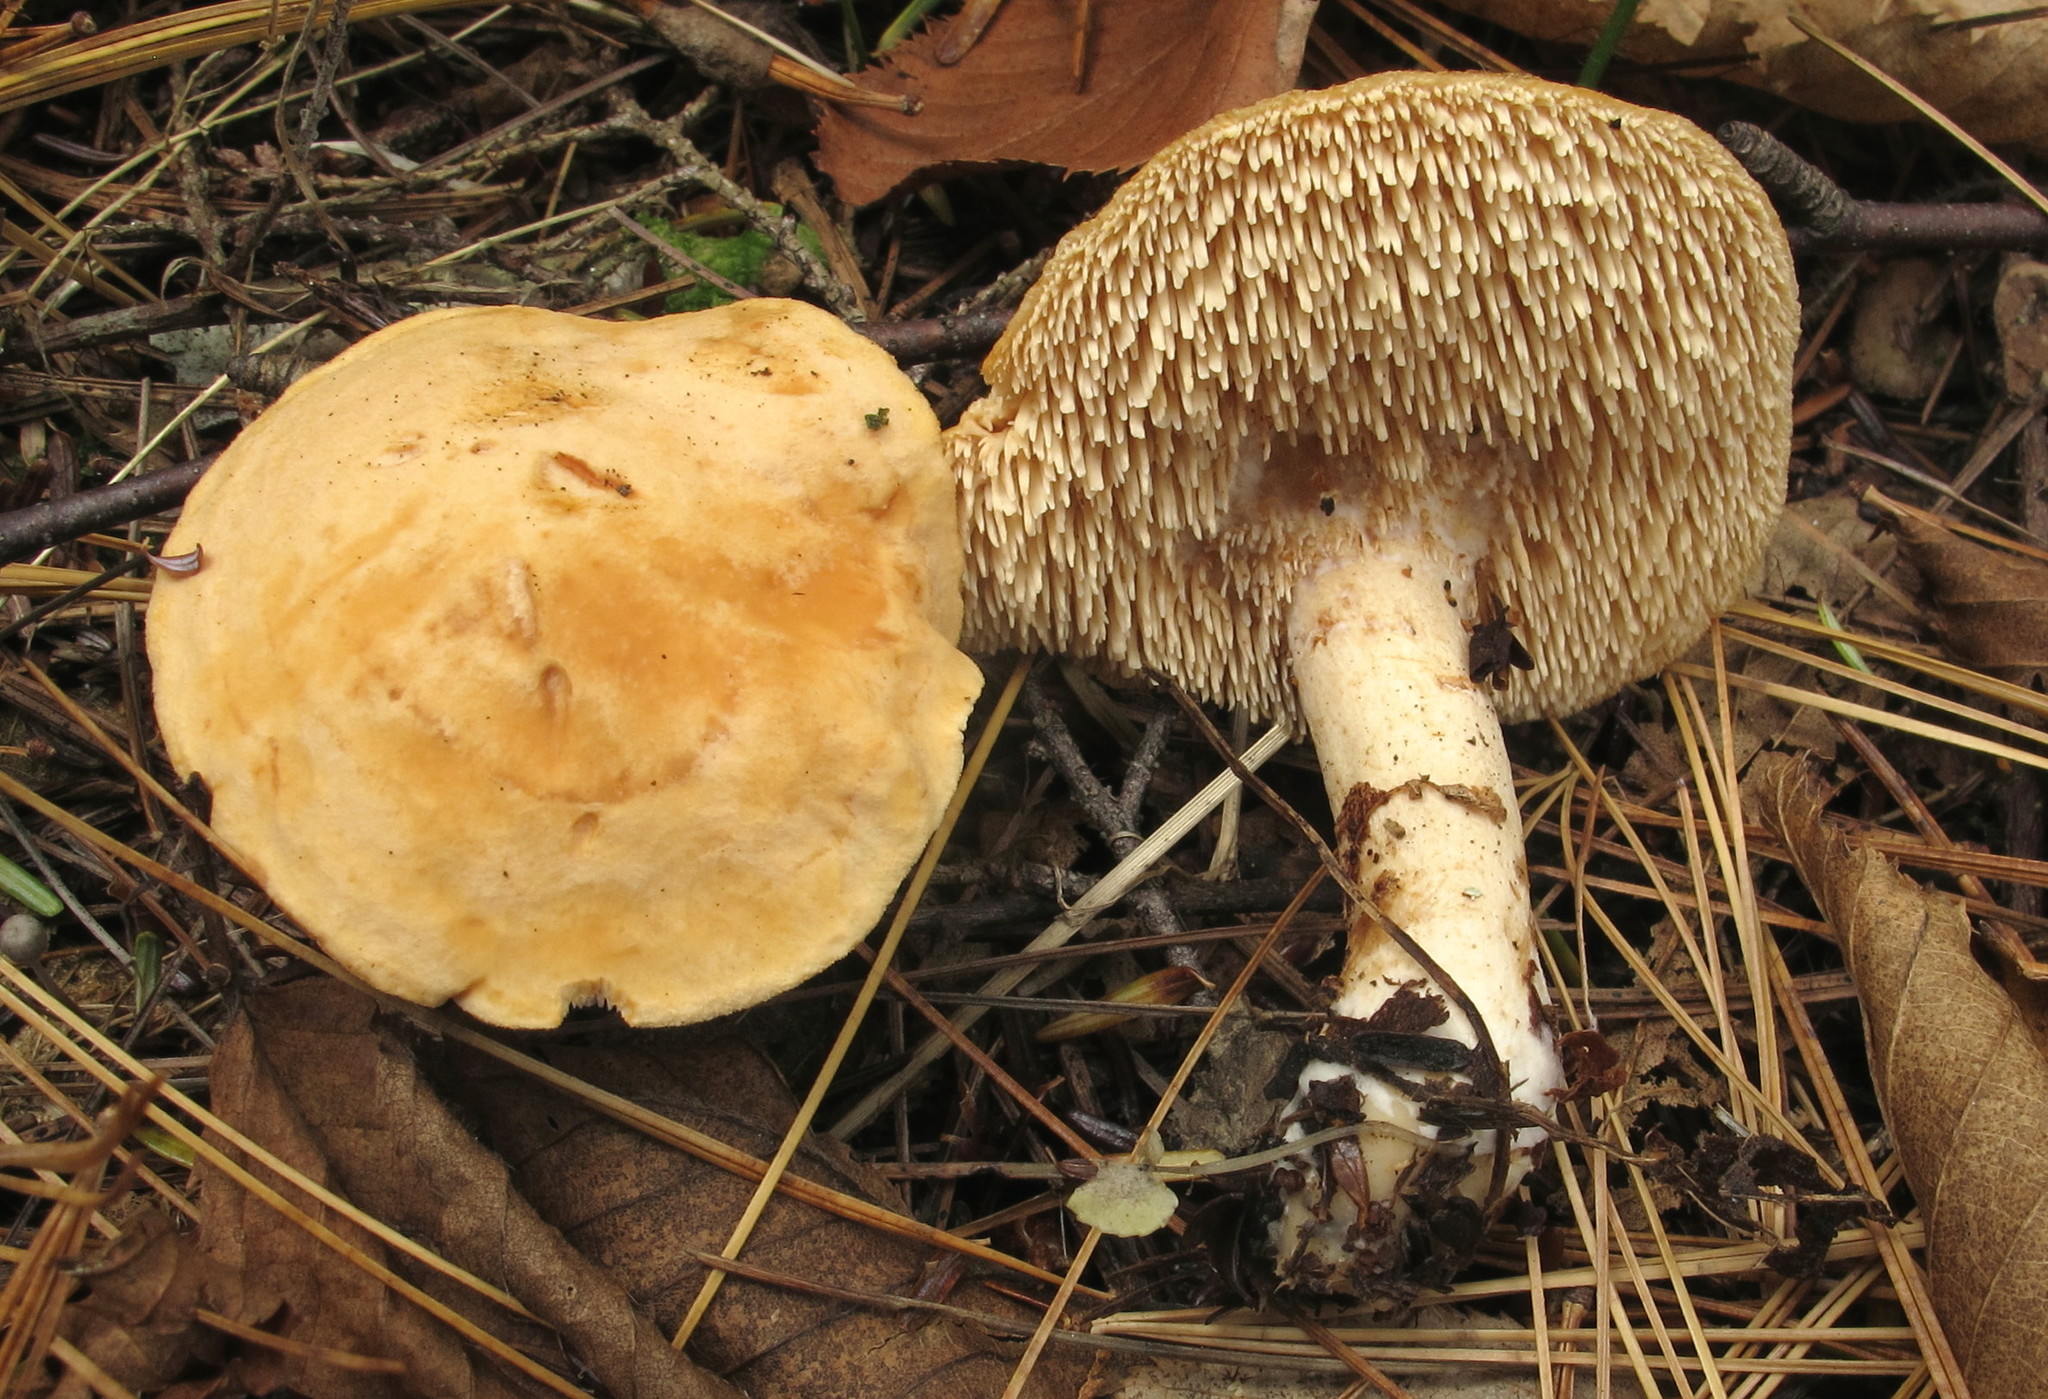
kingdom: Fungi
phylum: Basidiomycota
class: Agaricomycetes
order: Cantharellales
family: Hydnaceae
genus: Hydnum
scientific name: Hydnum umbilicatum
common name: Umbilicate hedgehog
